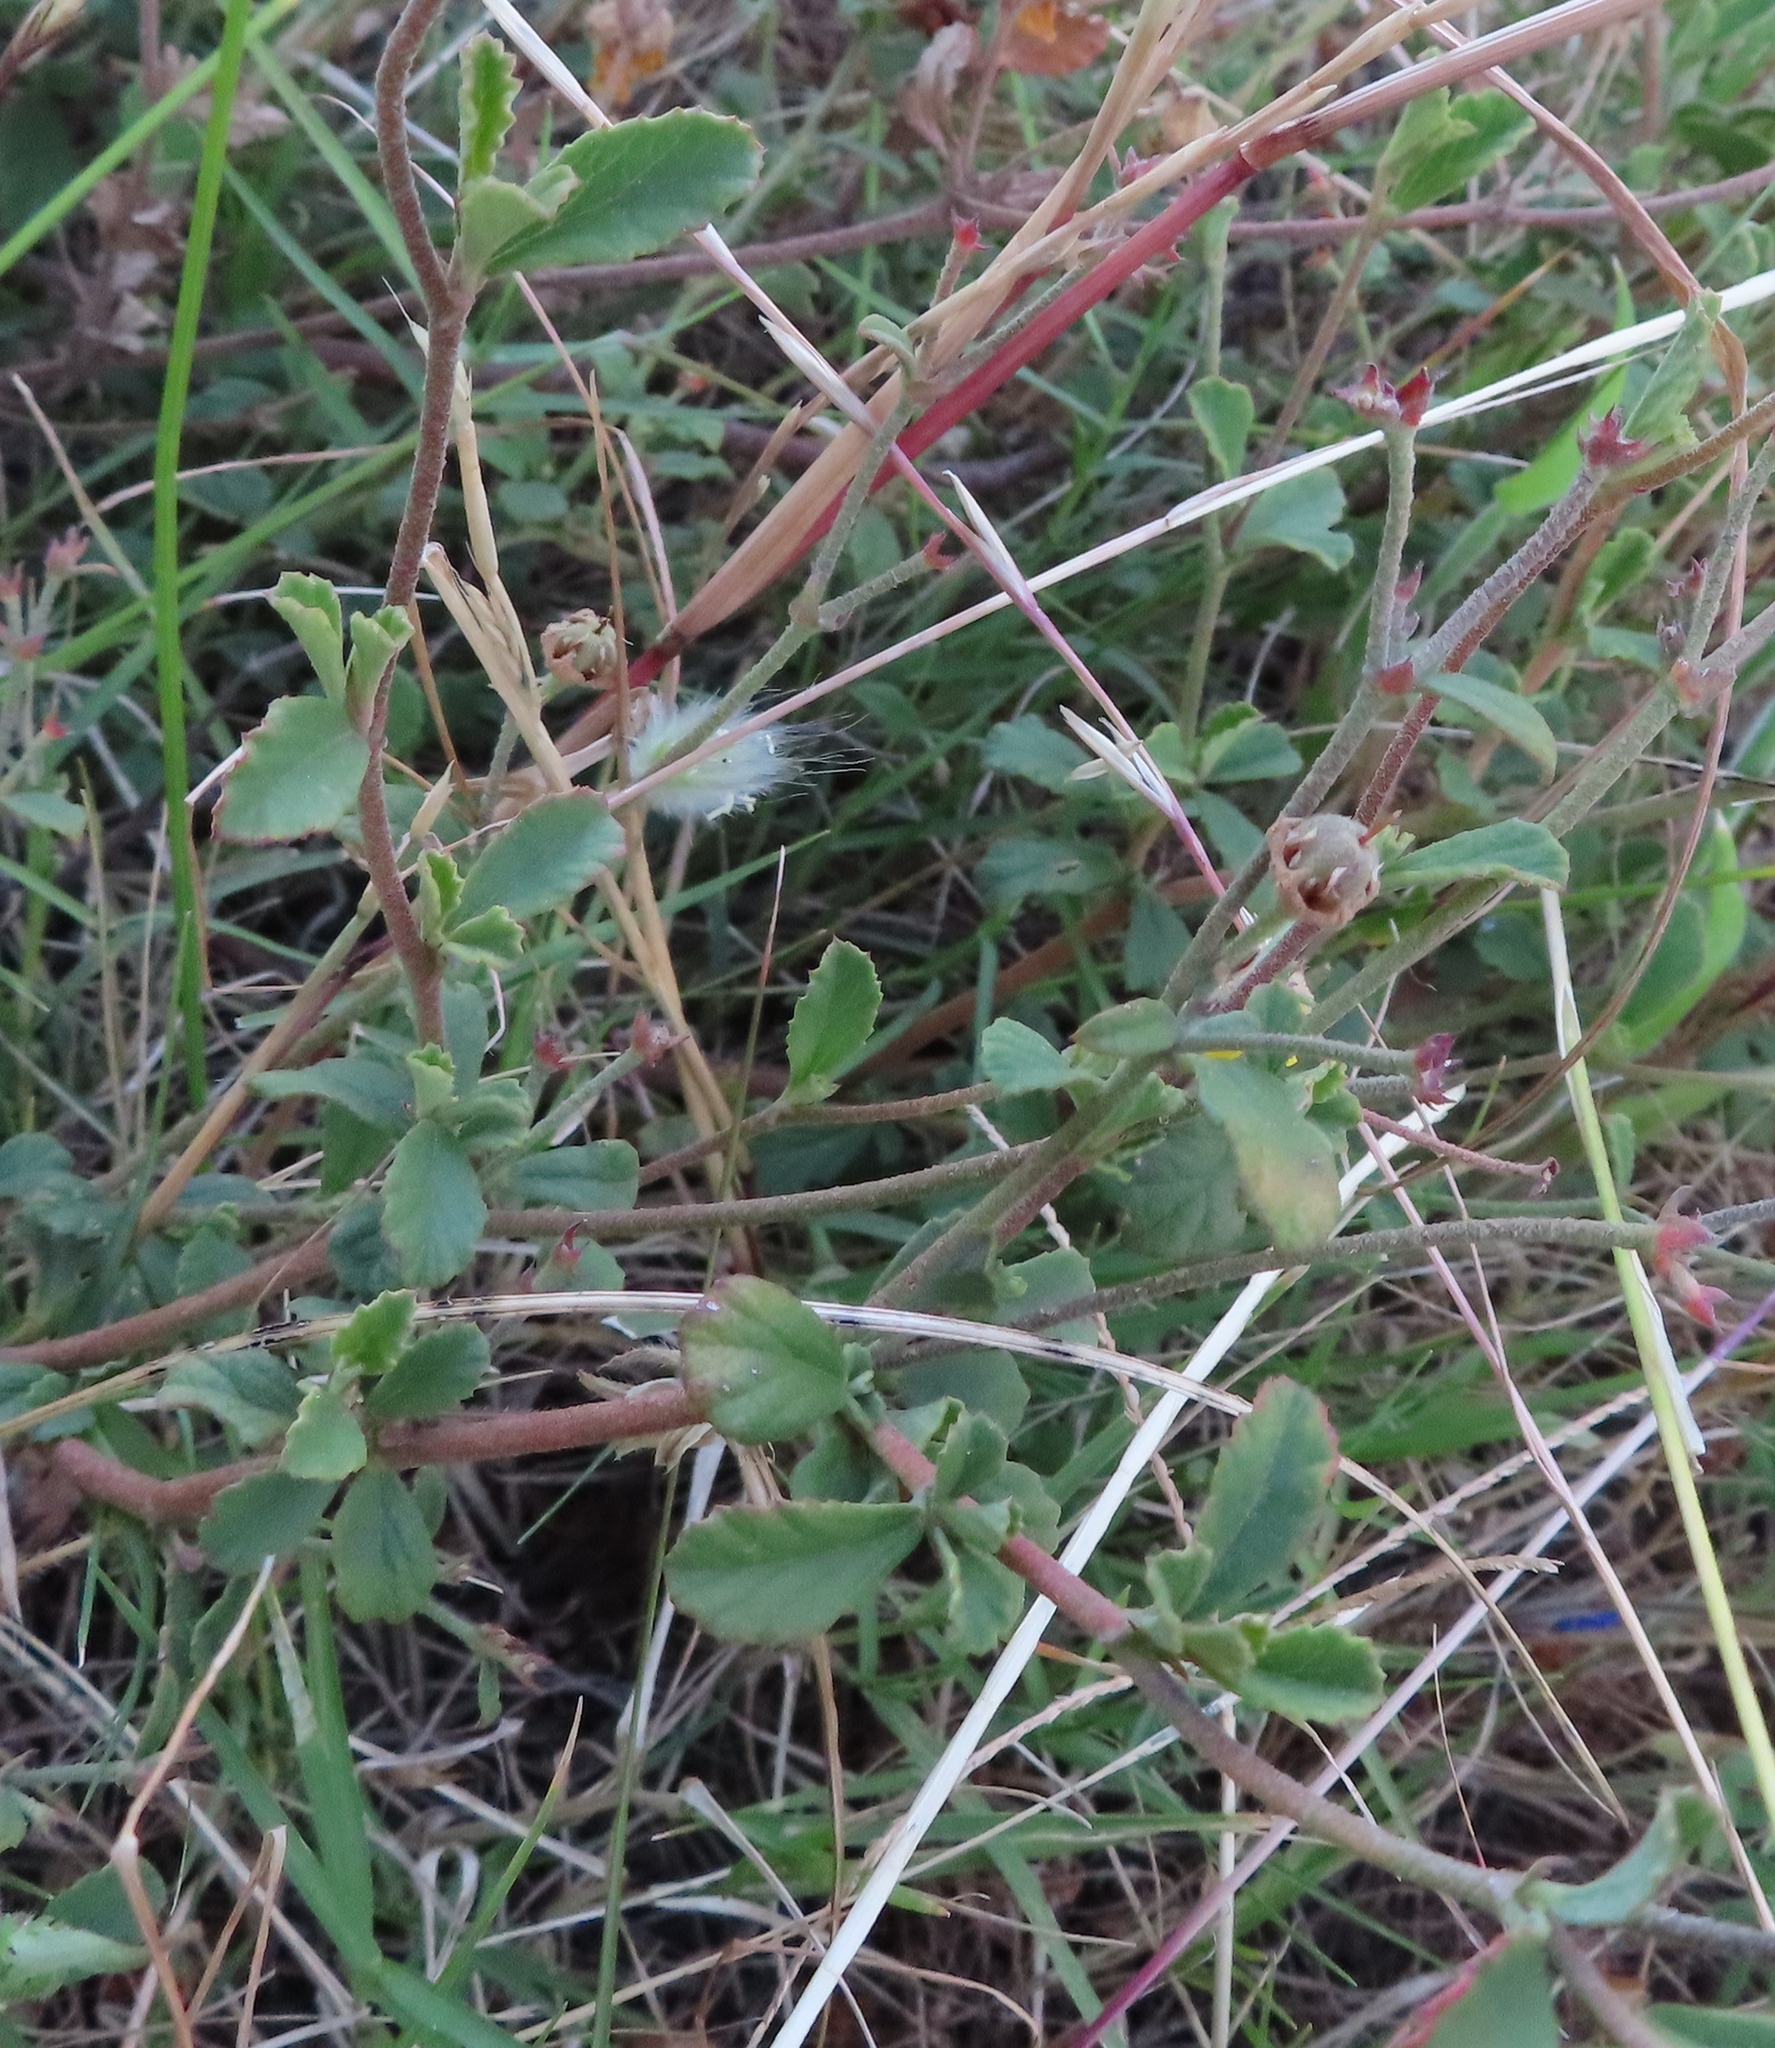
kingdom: Plantae
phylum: Tracheophyta
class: Magnoliopsida
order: Malvales
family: Malvaceae
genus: Hermannia
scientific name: Hermannia multiflora
